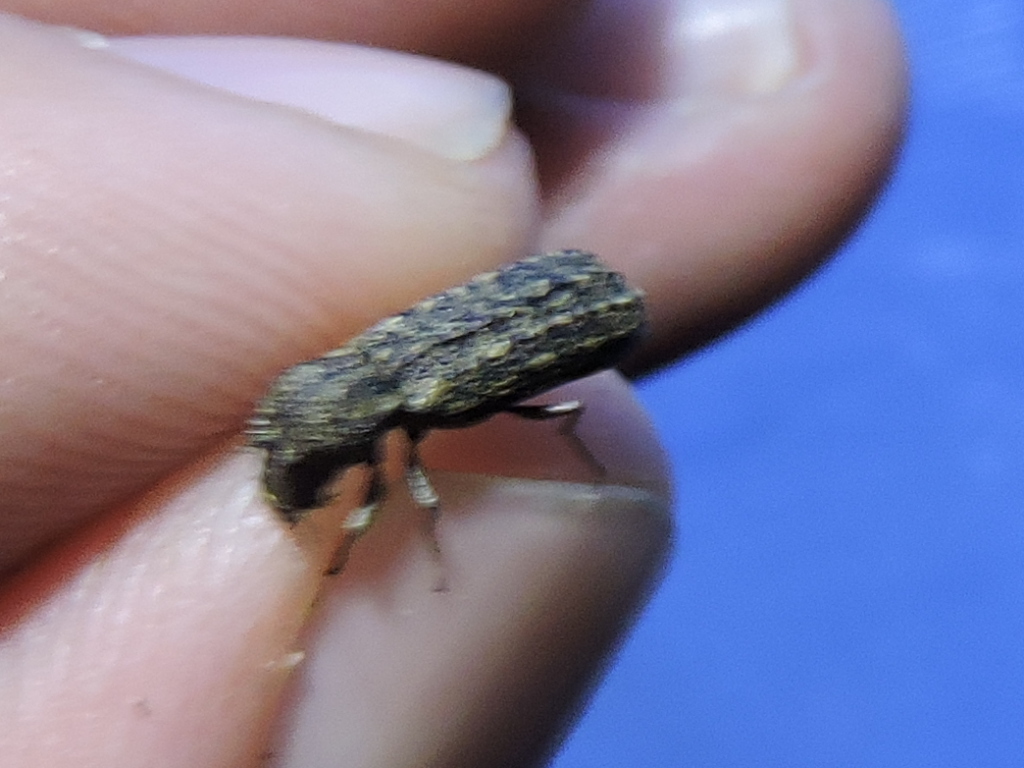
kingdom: Animalia
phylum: Arthropoda
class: Insecta
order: Coleoptera
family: Bostrichidae
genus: Lichenophanes
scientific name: Lichenophanes bicornis
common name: Two-horned powder-post beetle
